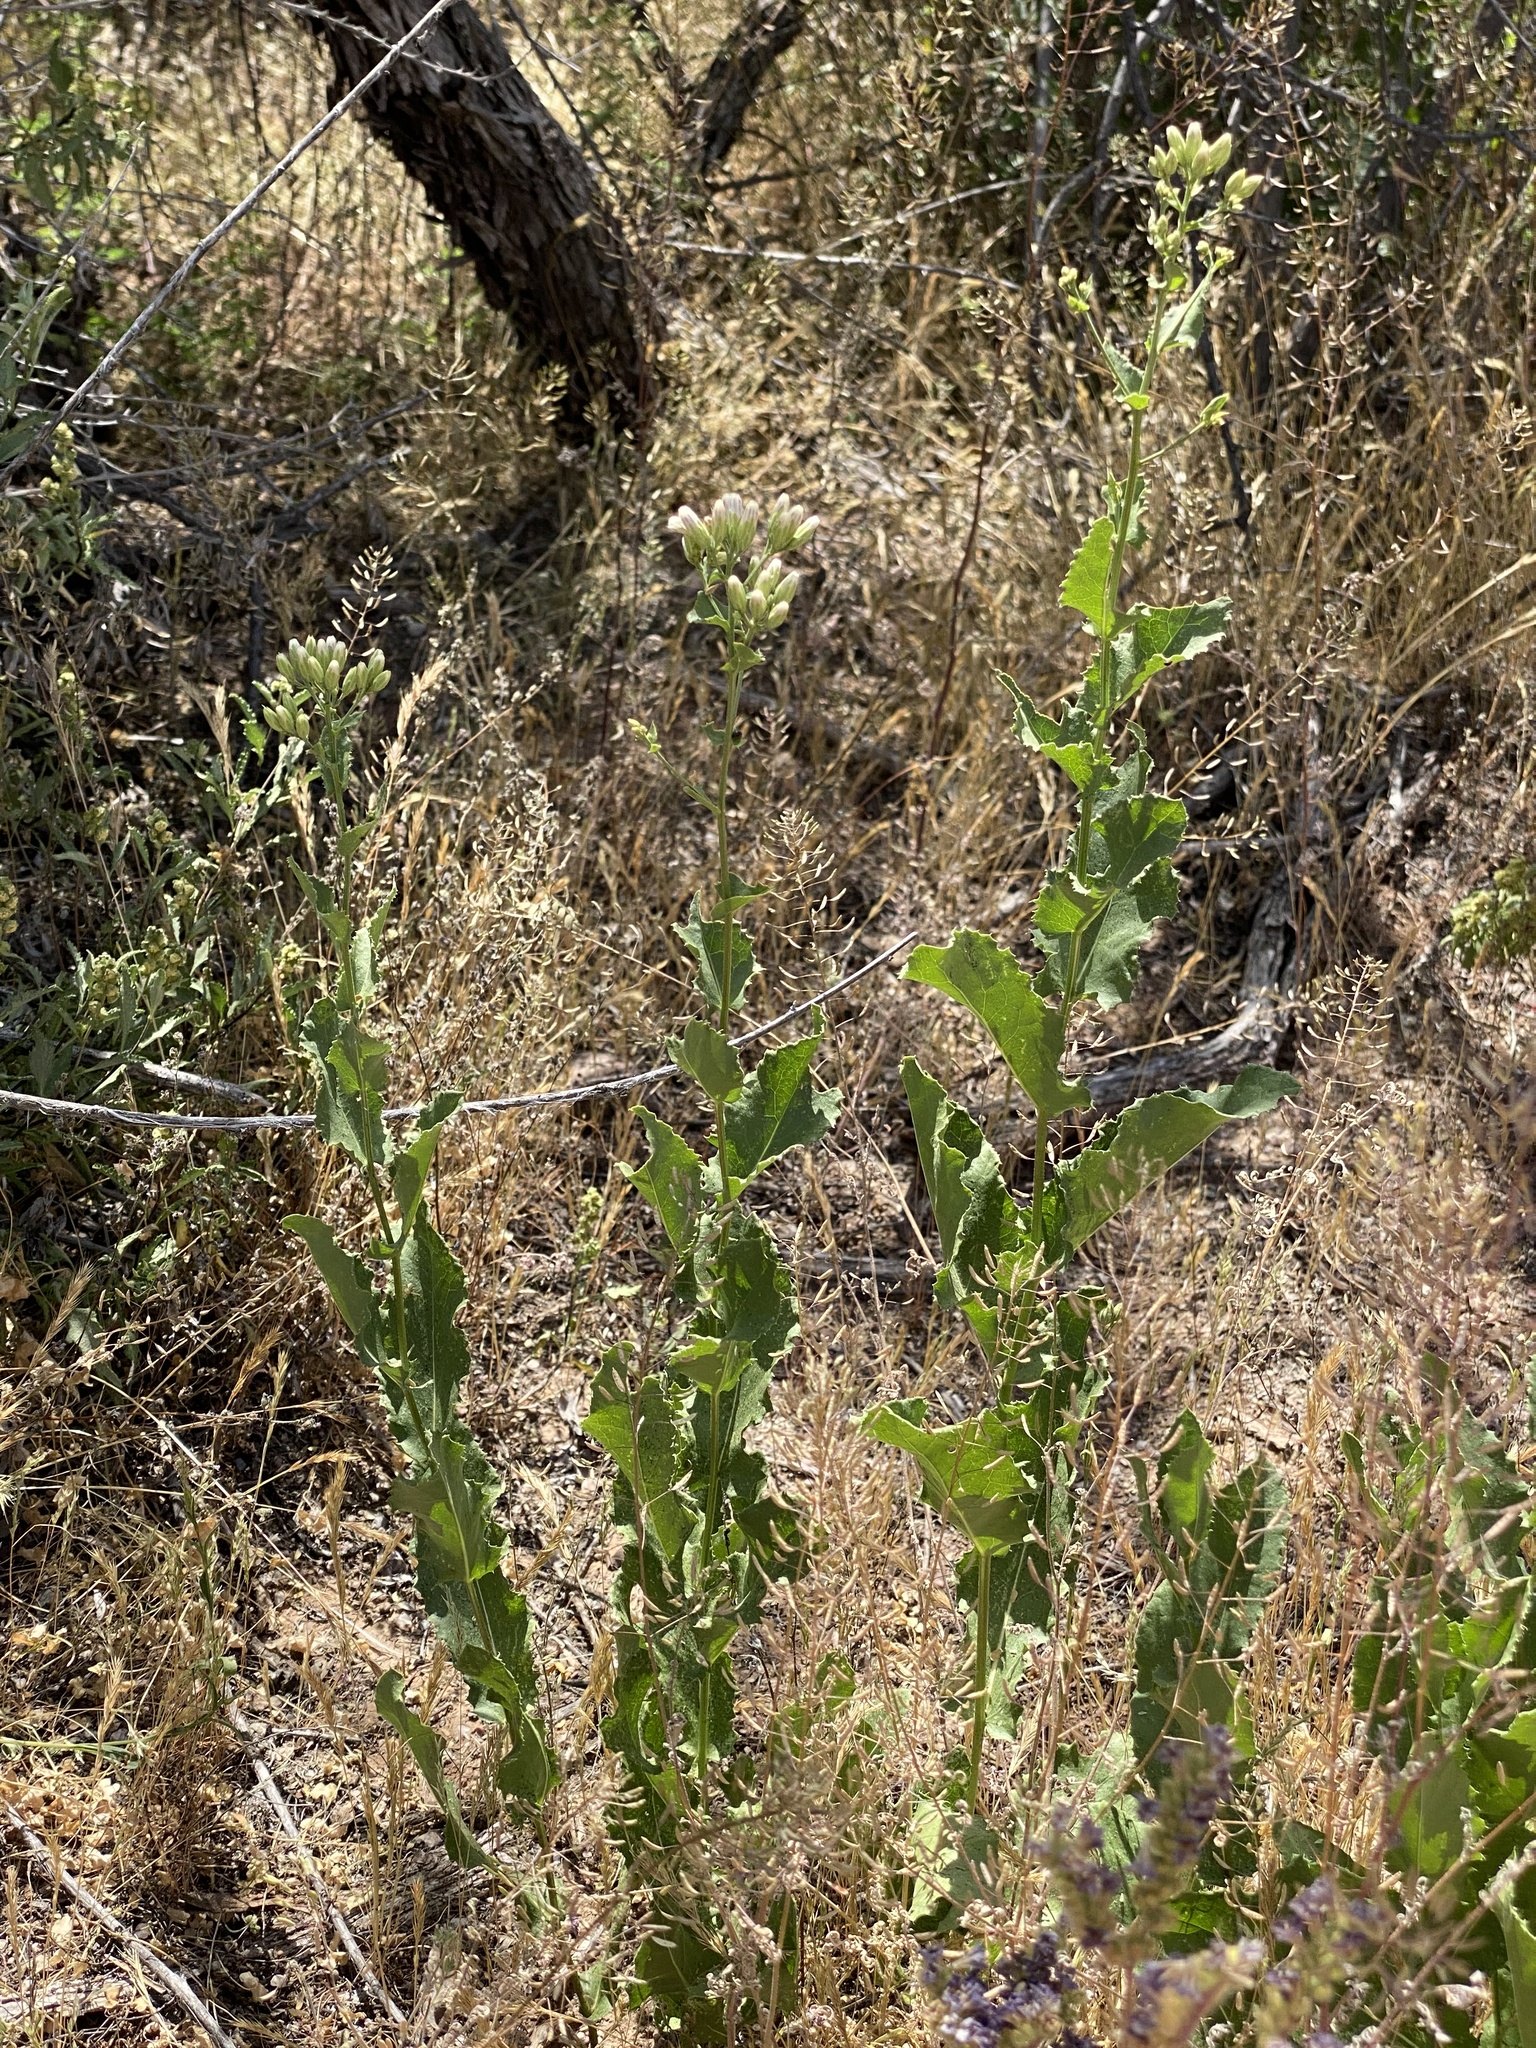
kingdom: Plantae
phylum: Tracheophyta
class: Magnoliopsida
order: Asterales
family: Asteraceae
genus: Acourtia
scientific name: Acourtia wrightii
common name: Brownfoot
